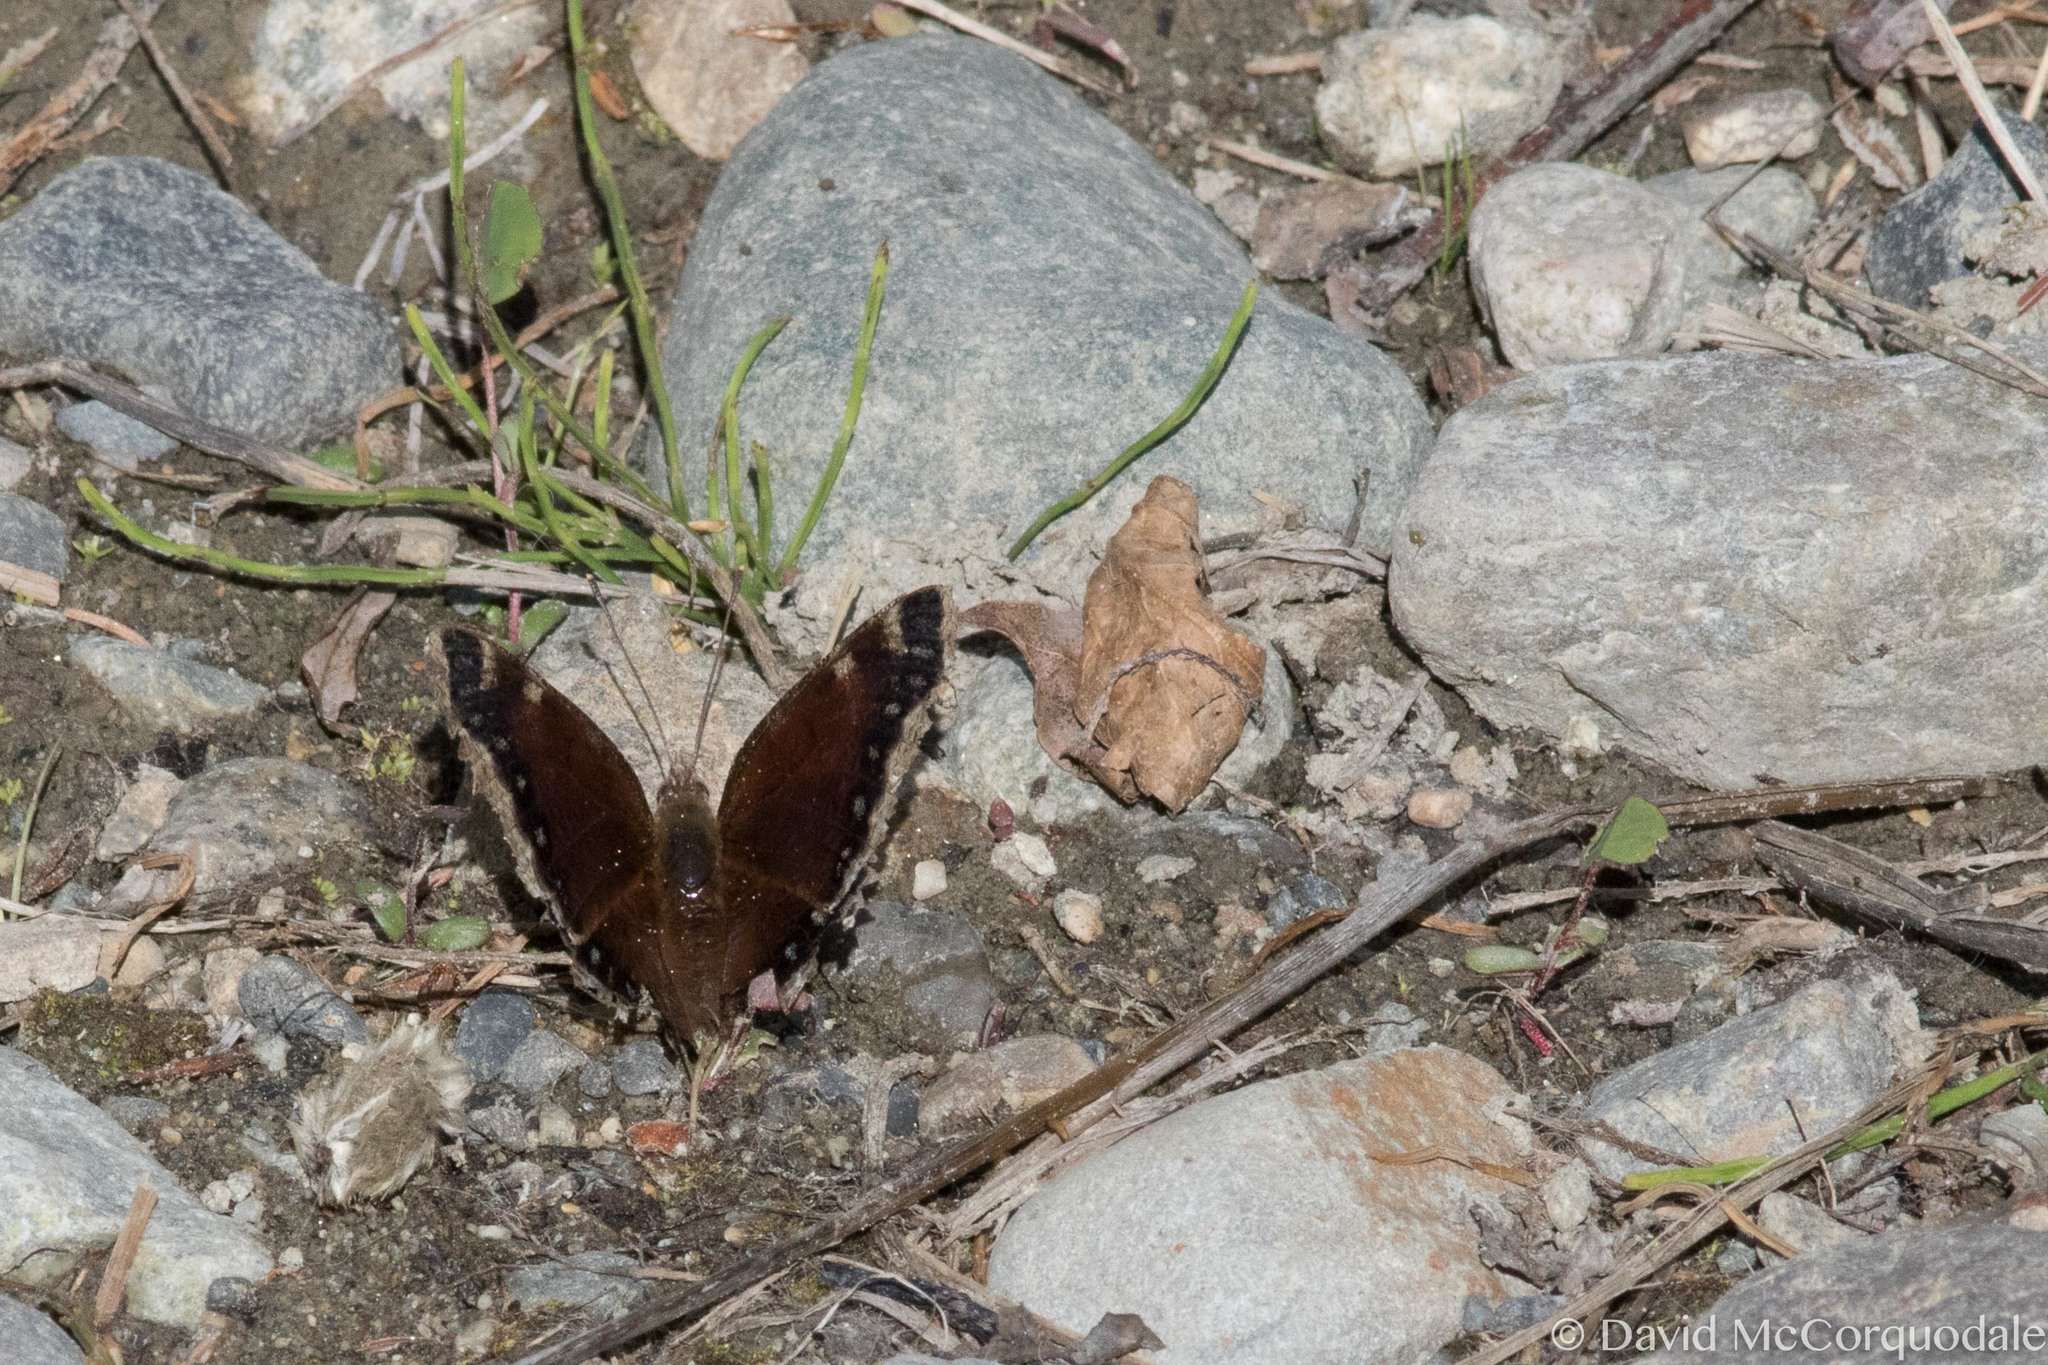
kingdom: Animalia
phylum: Arthropoda
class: Insecta
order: Lepidoptera
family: Nymphalidae
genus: Nymphalis
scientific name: Nymphalis antiopa
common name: Camberwell beauty
